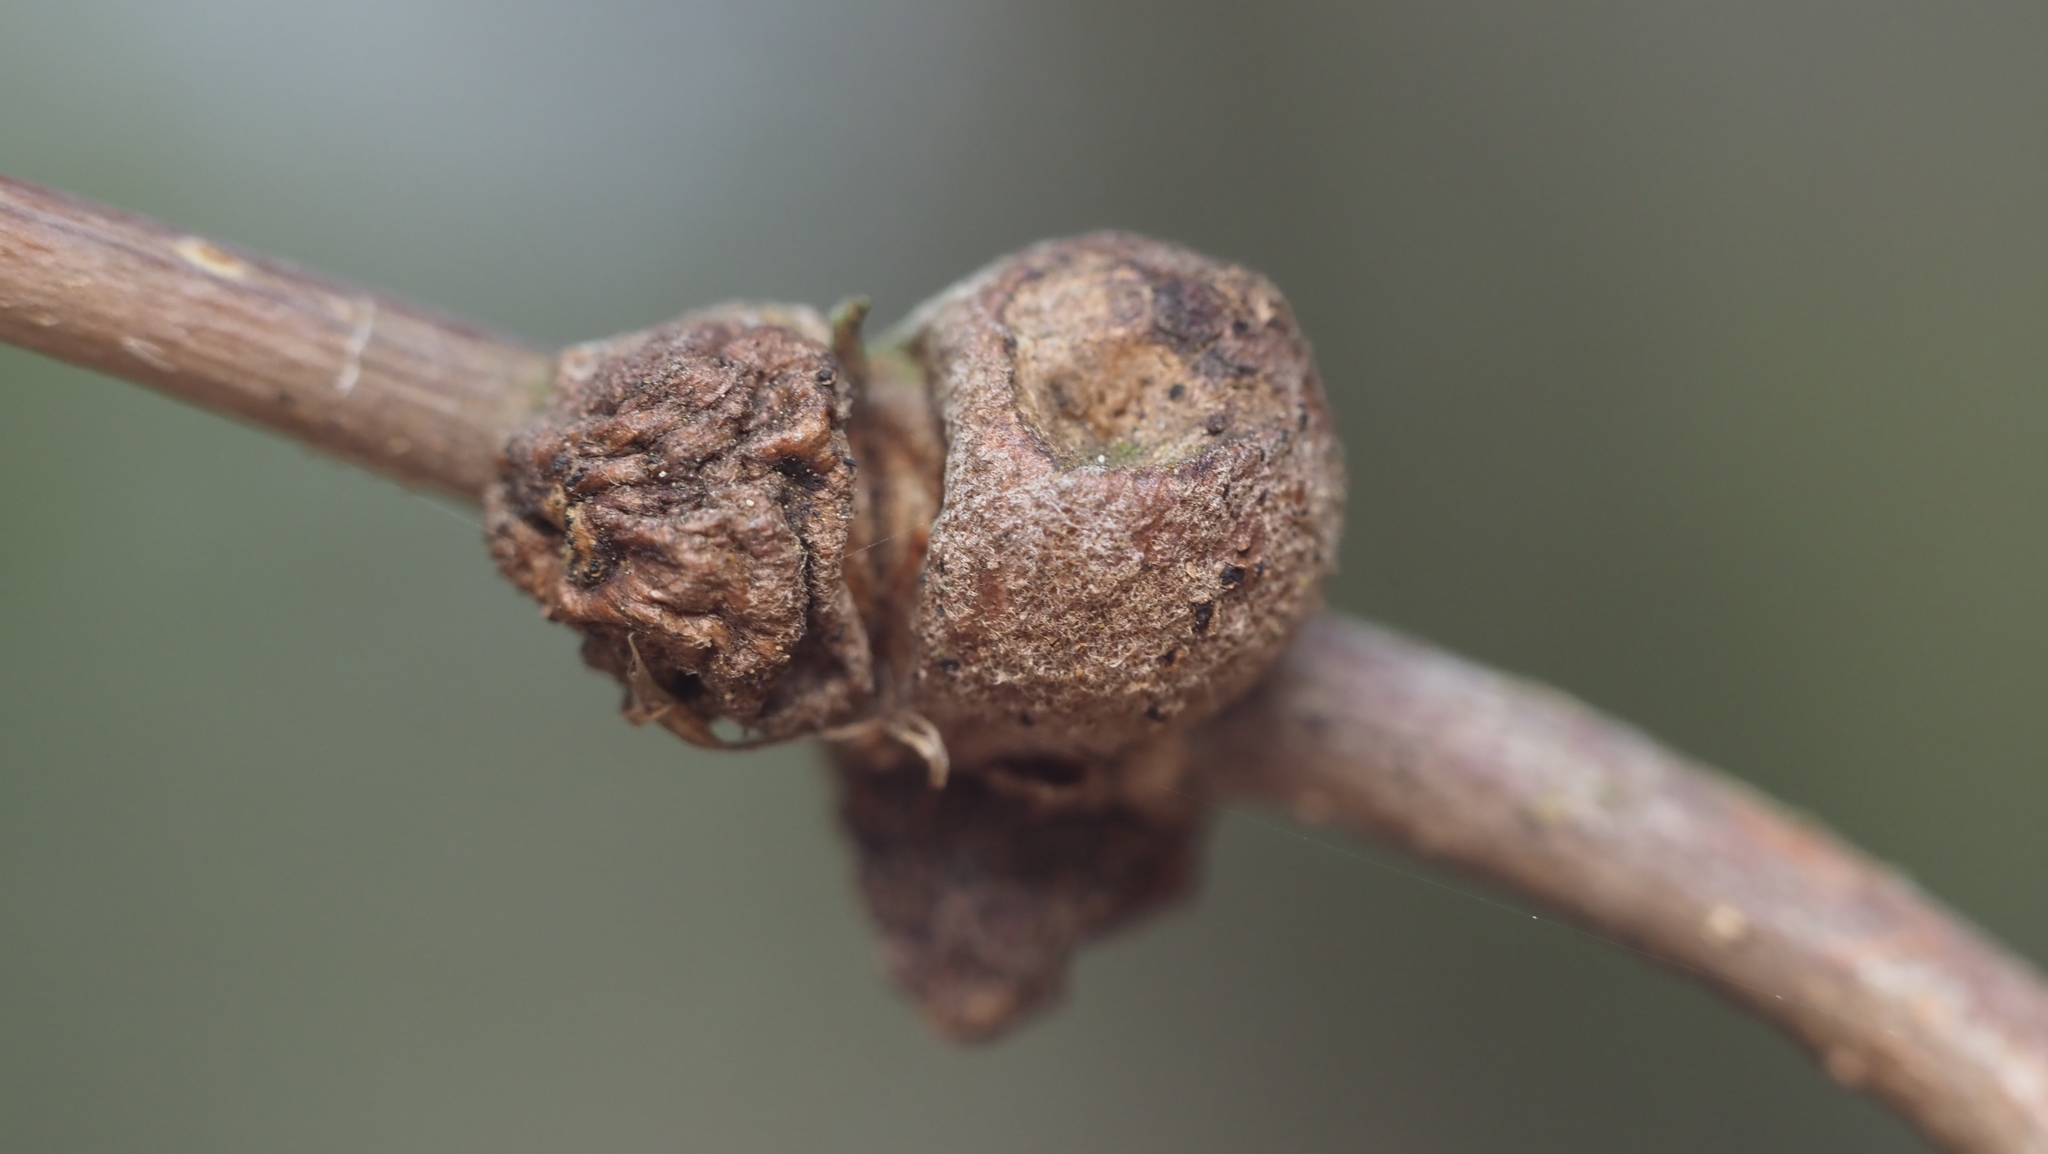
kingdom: Animalia
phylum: Arthropoda
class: Insecta
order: Hymenoptera
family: Cynipidae
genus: Disholcaspis
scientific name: Disholcaspis
